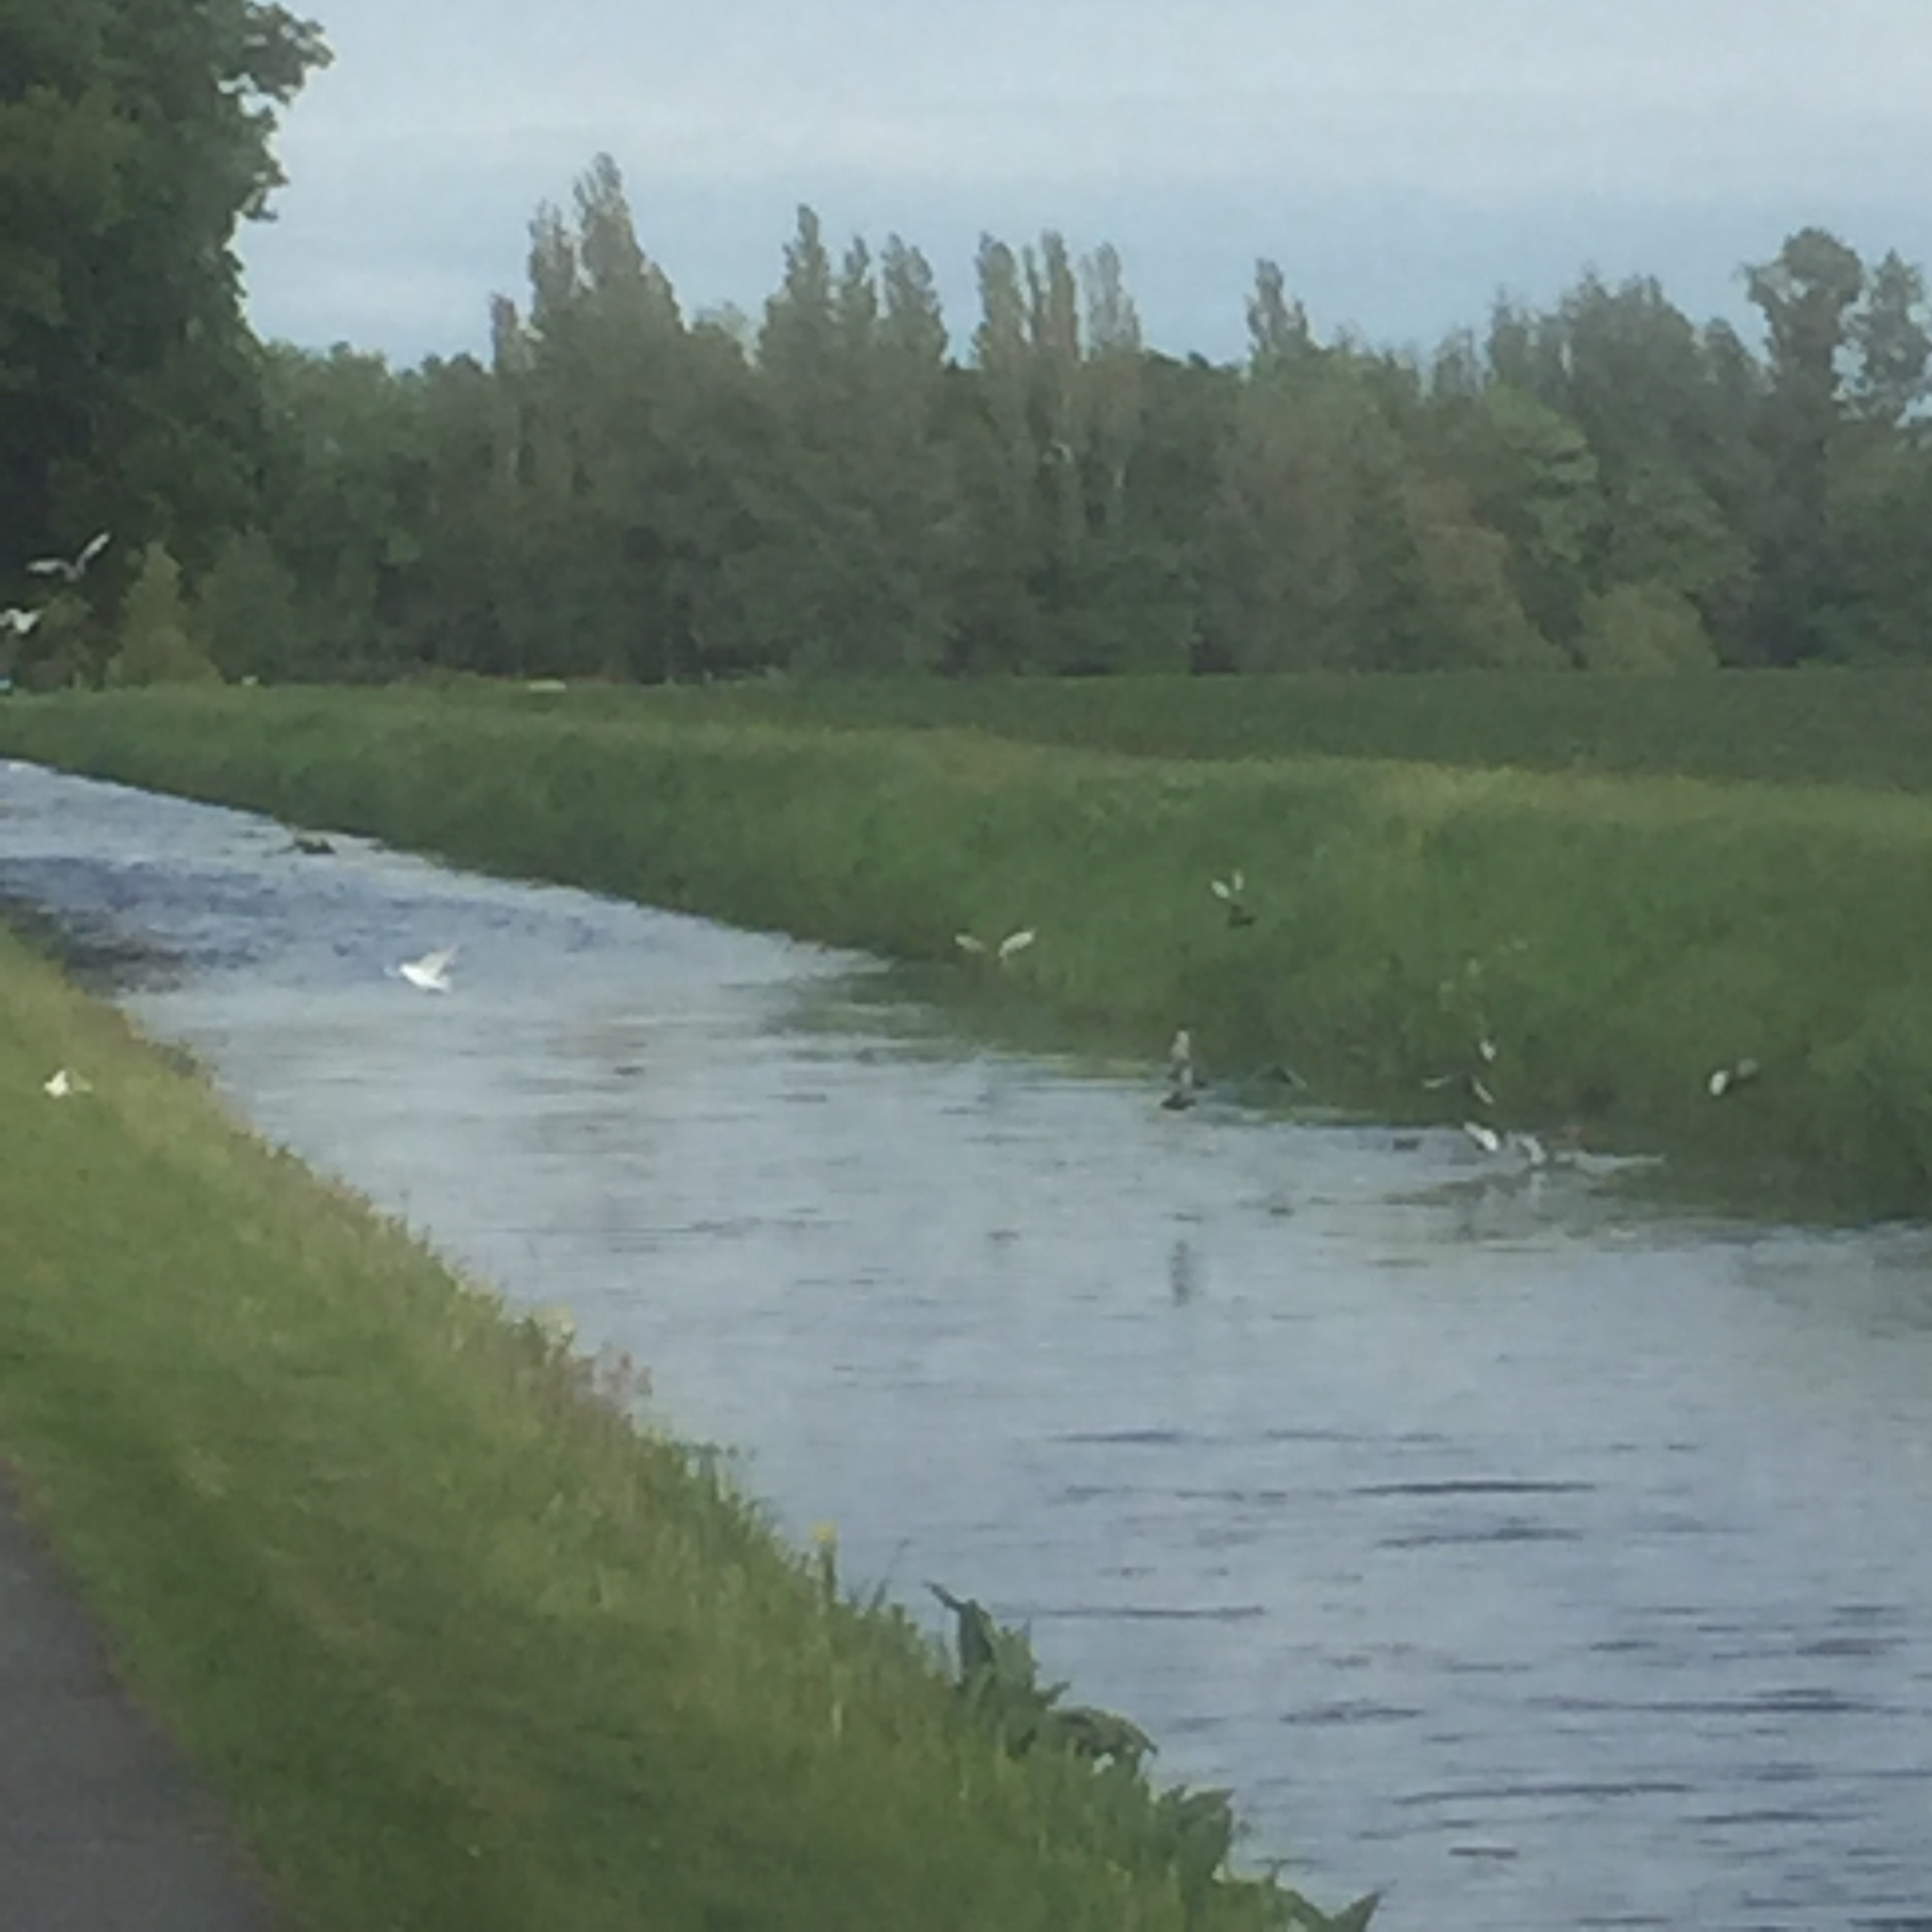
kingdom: Animalia
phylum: Chordata
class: Aves
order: Columbiformes
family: Columbidae
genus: Columba
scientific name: Columba livia
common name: Rock pigeon
